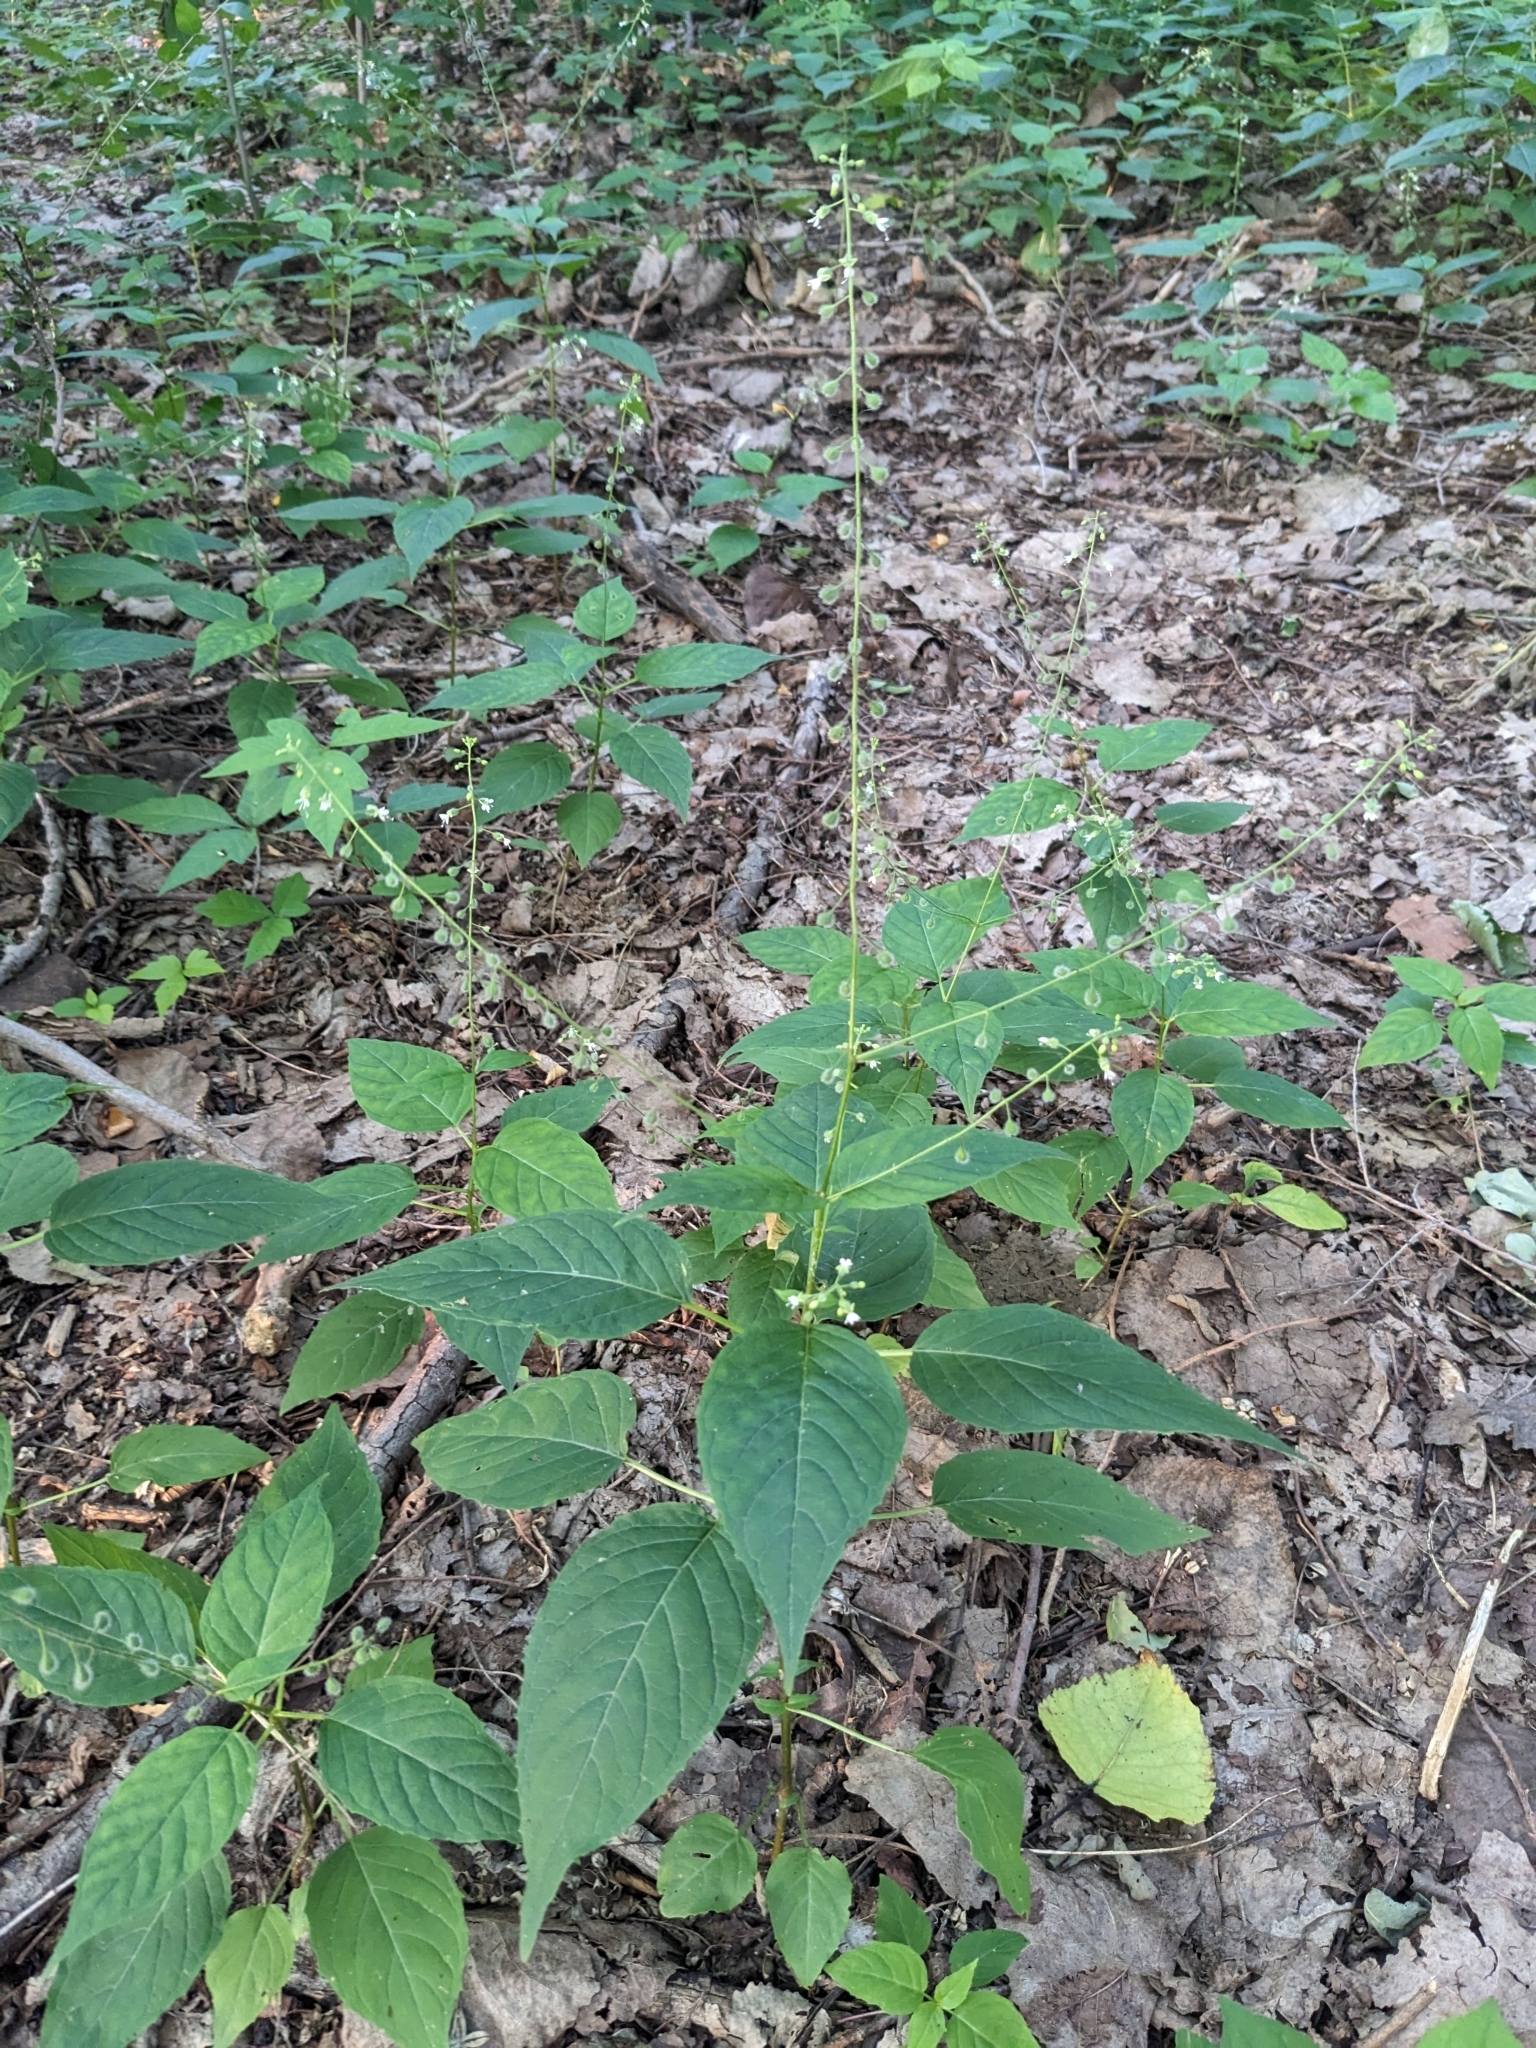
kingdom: Plantae
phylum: Tracheophyta
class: Magnoliopsida
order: Caryophyllales
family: Polygonaceae
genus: Persicaria
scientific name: Persicaria virginiana
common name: Jumpseed
